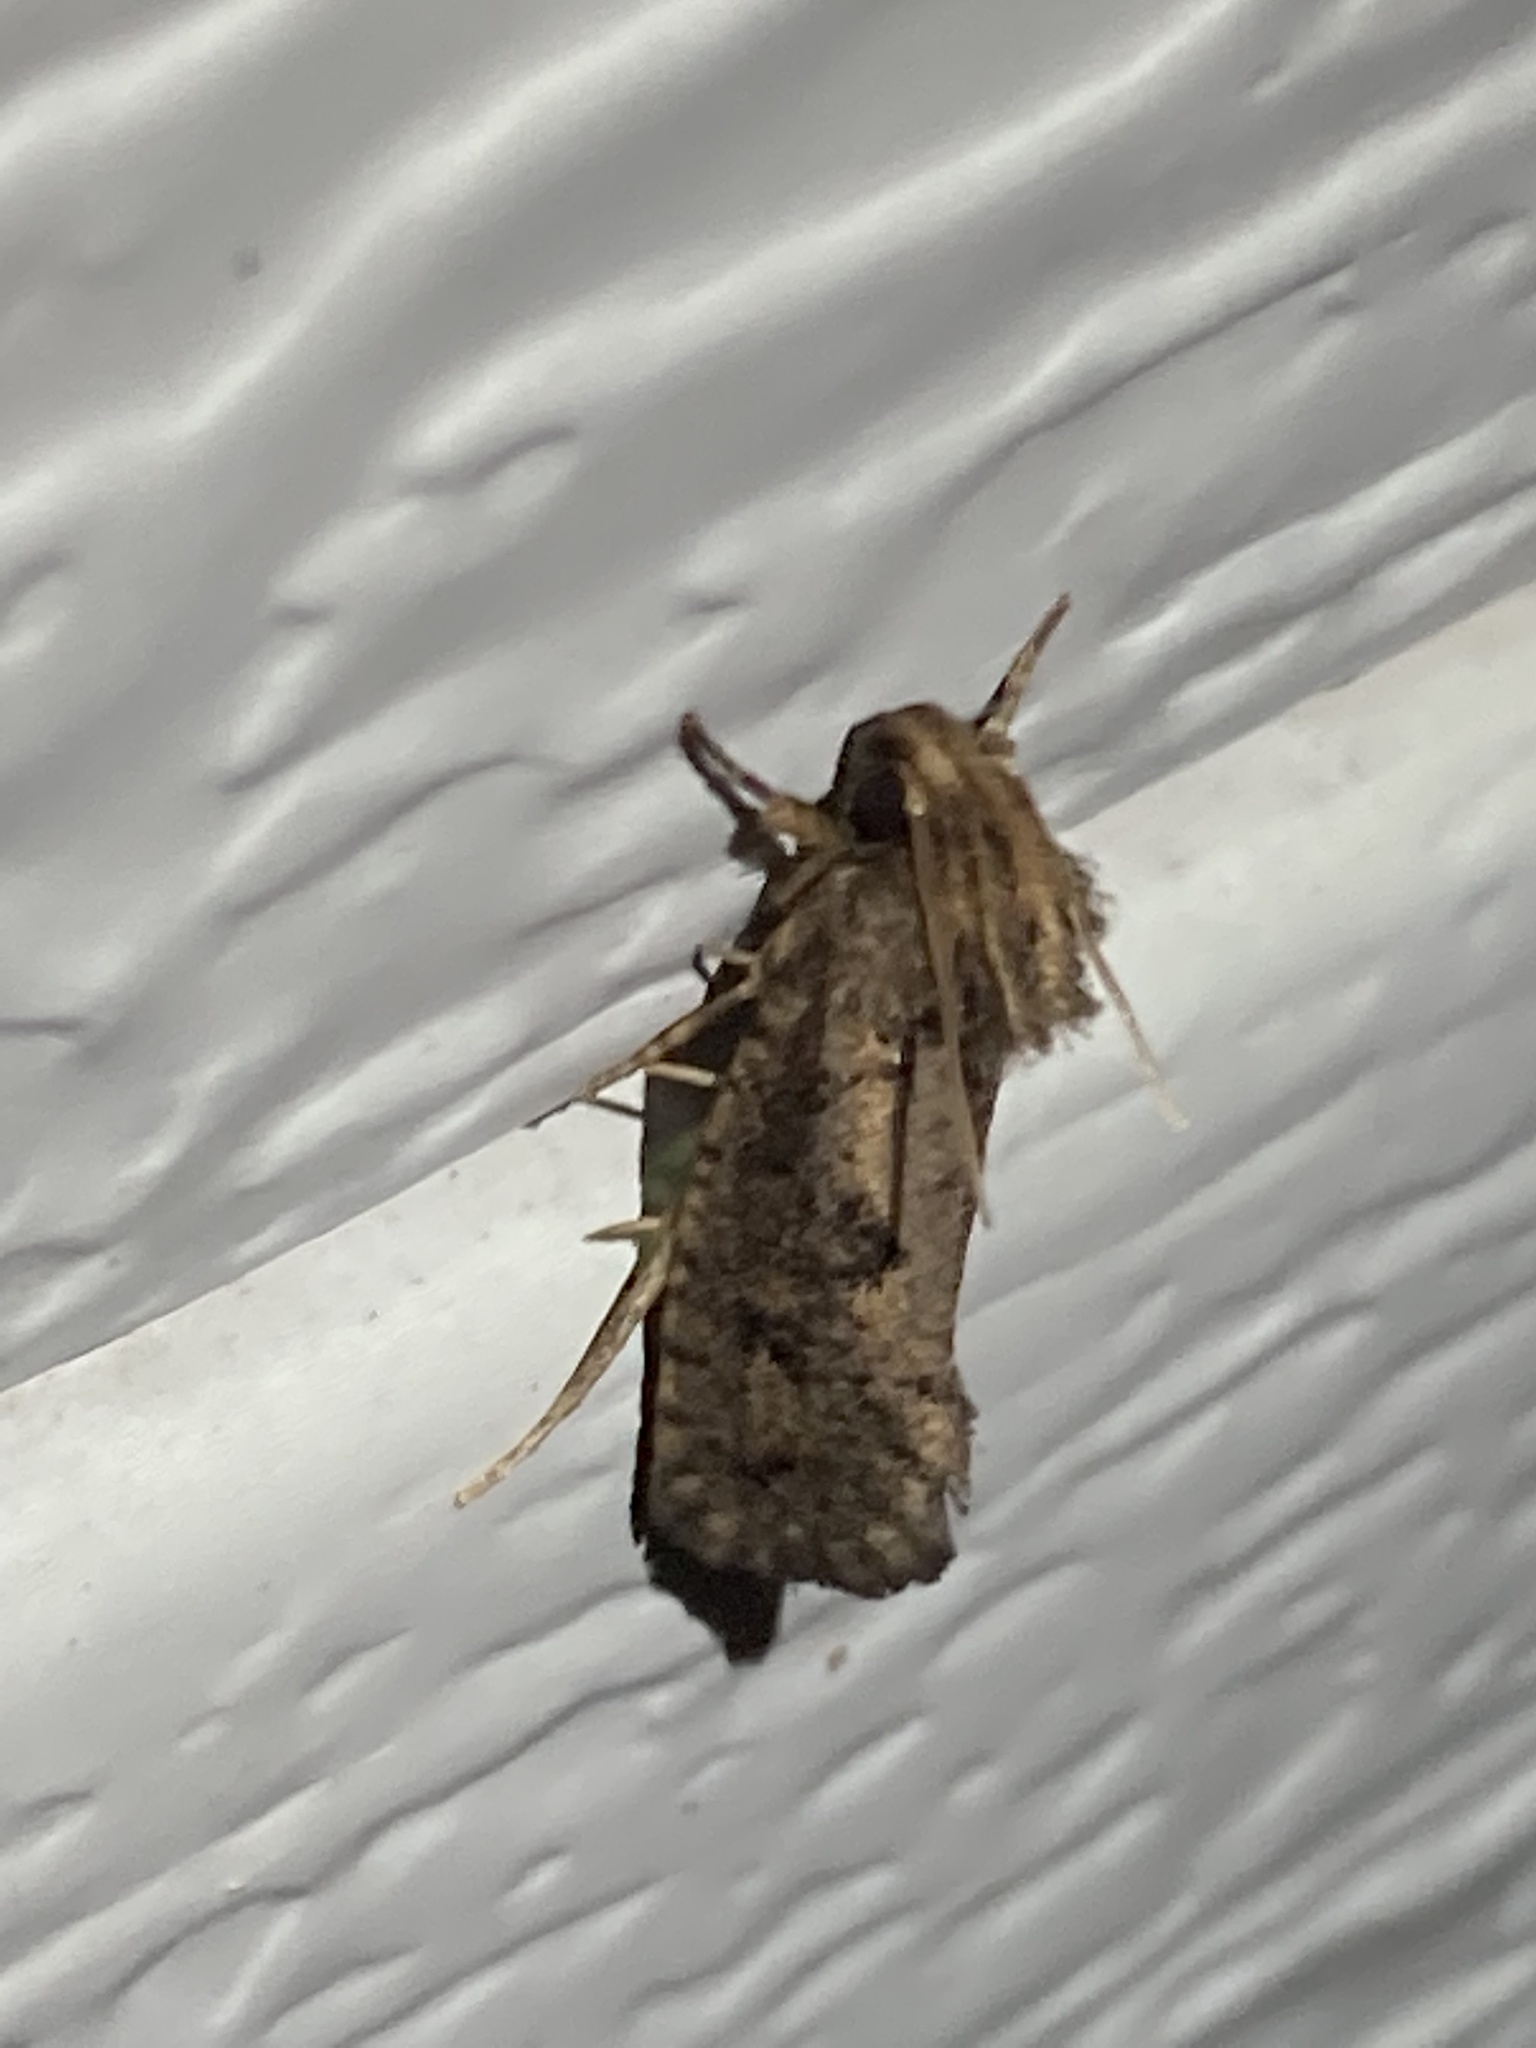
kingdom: Animalia
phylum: Arthropoda
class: Insecta
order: Lepidoptera
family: Tineidae
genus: Acrolophus
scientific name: Acrolophus popeanella
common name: Clemens' grass tubeworm moth
